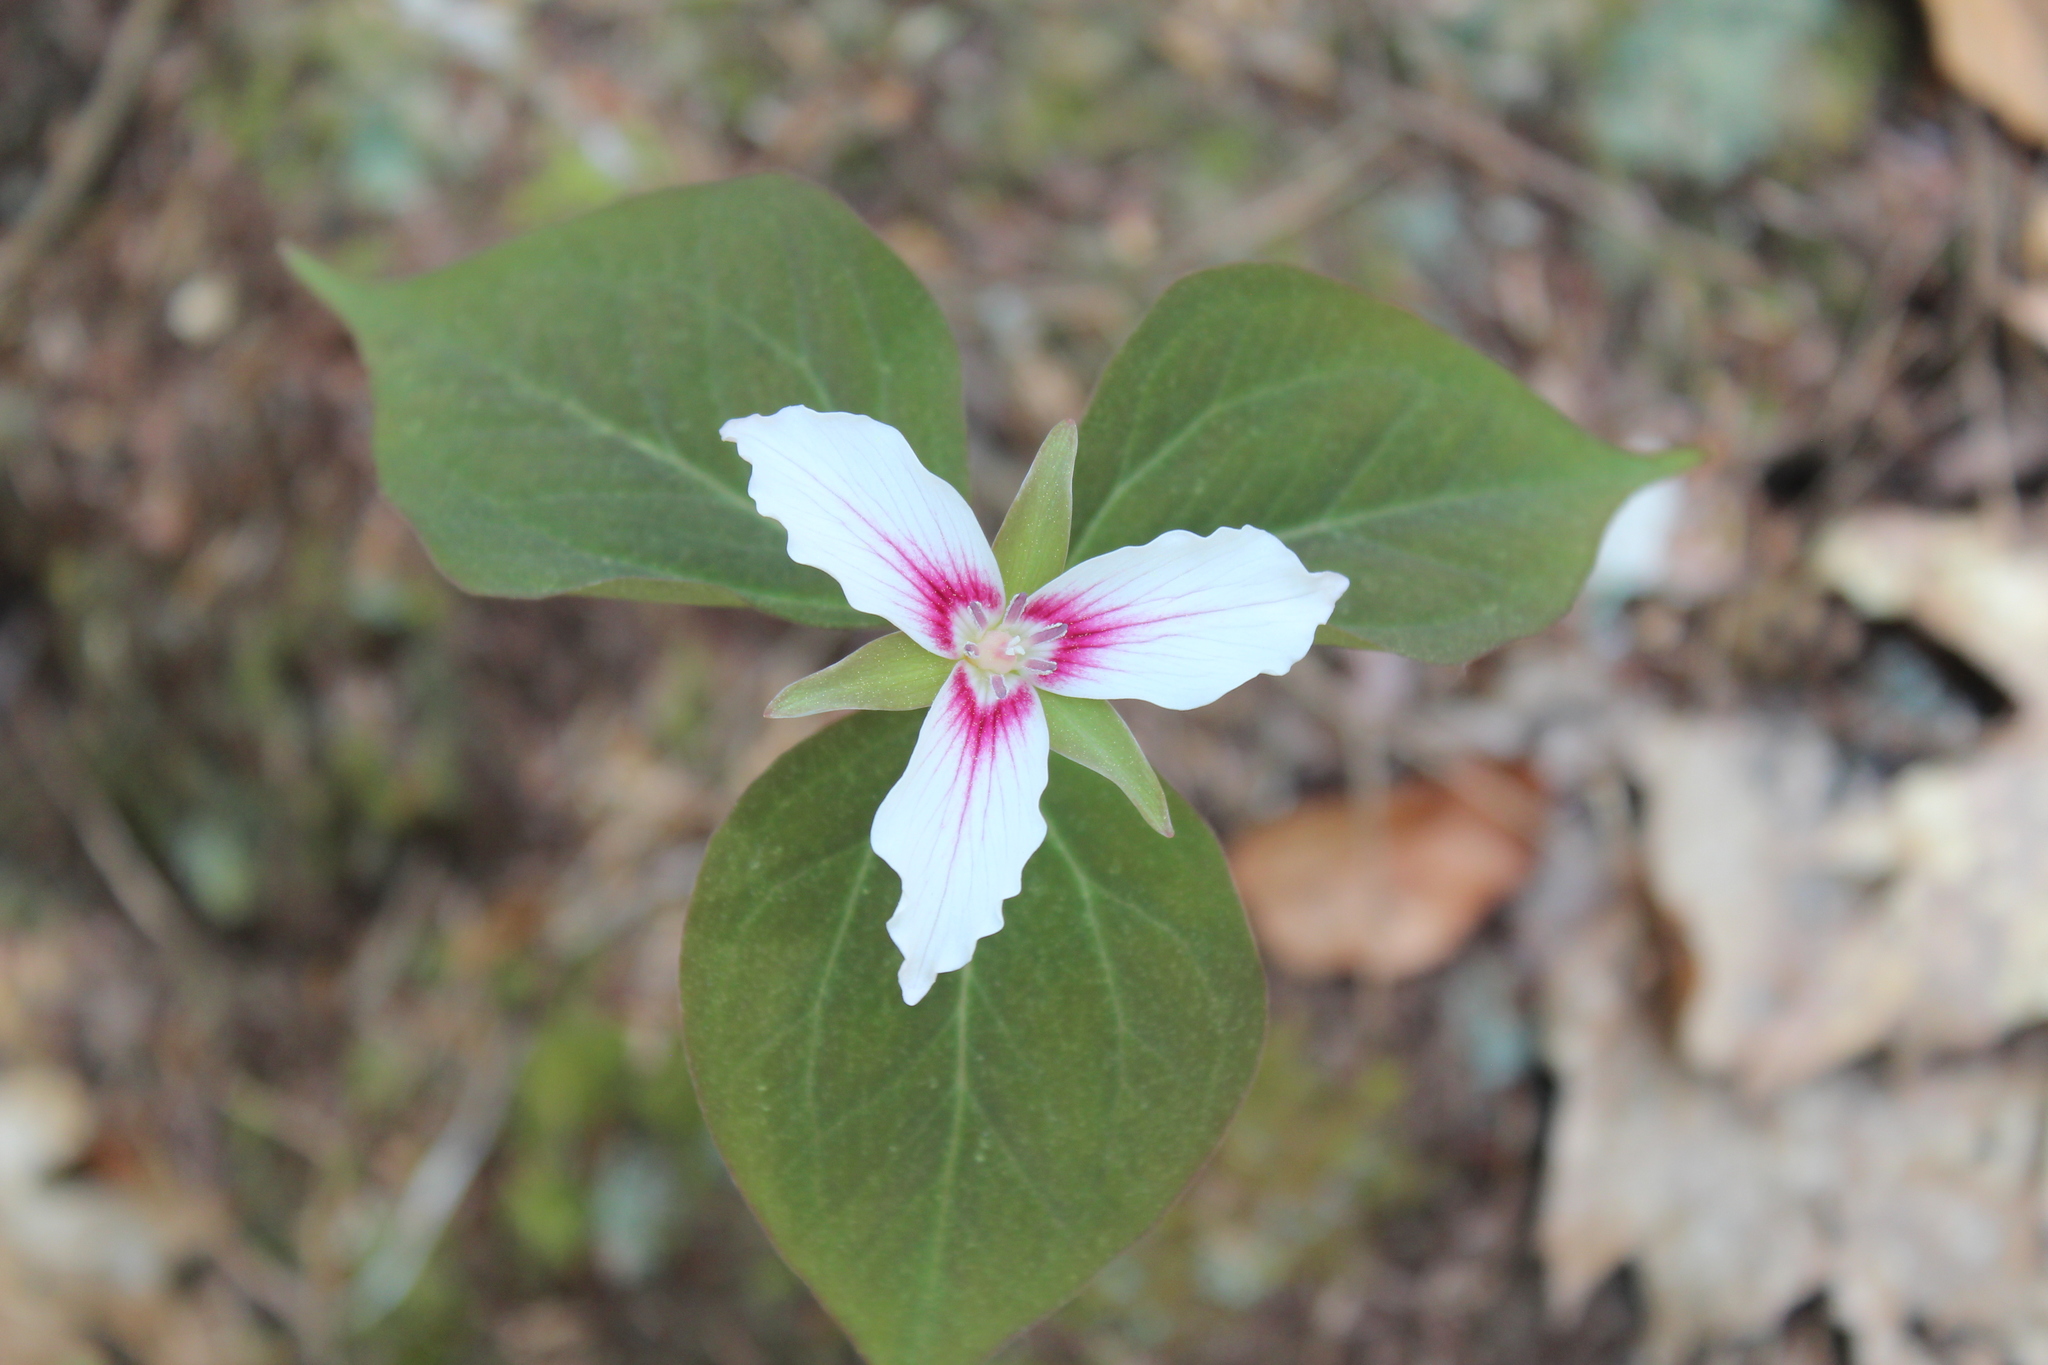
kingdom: Plantae
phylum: Tracheophyta
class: Liliopsida
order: Liliales
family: Melanthiaceae
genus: Trillium
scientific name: Trillium undulatum
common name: Paint trillium
